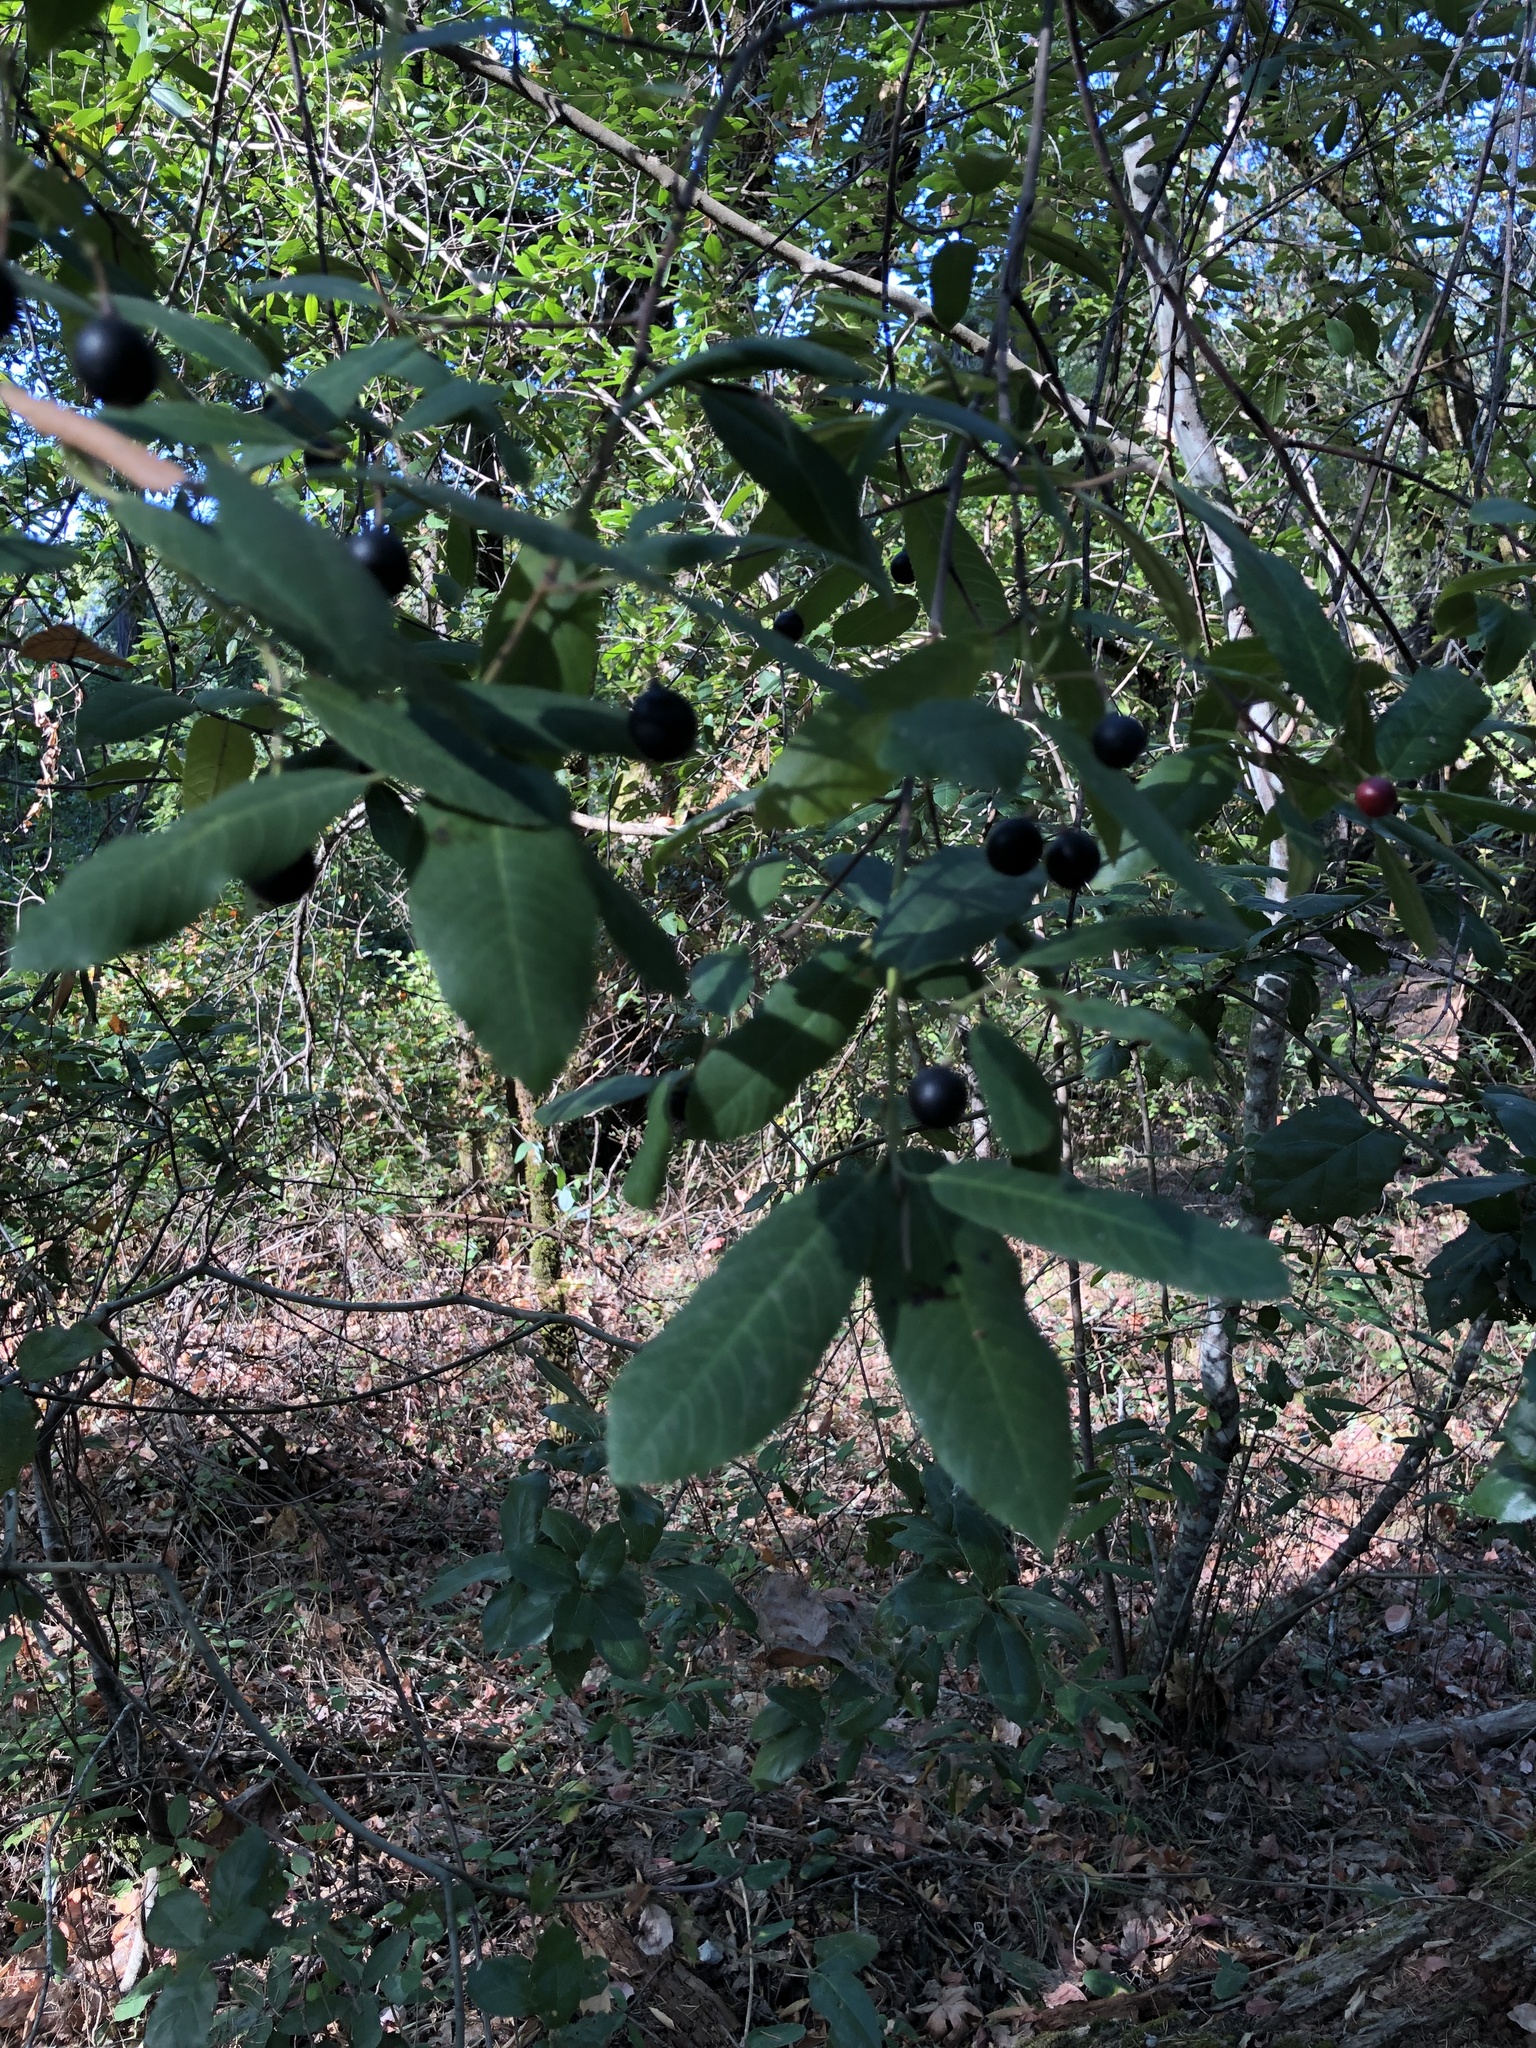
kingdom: Plantae
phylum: Tracheophyta
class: Magnoliopsida
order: Rosales
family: Rhamnaceae
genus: Frangula
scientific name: Frangula californica
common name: California buckthorn
